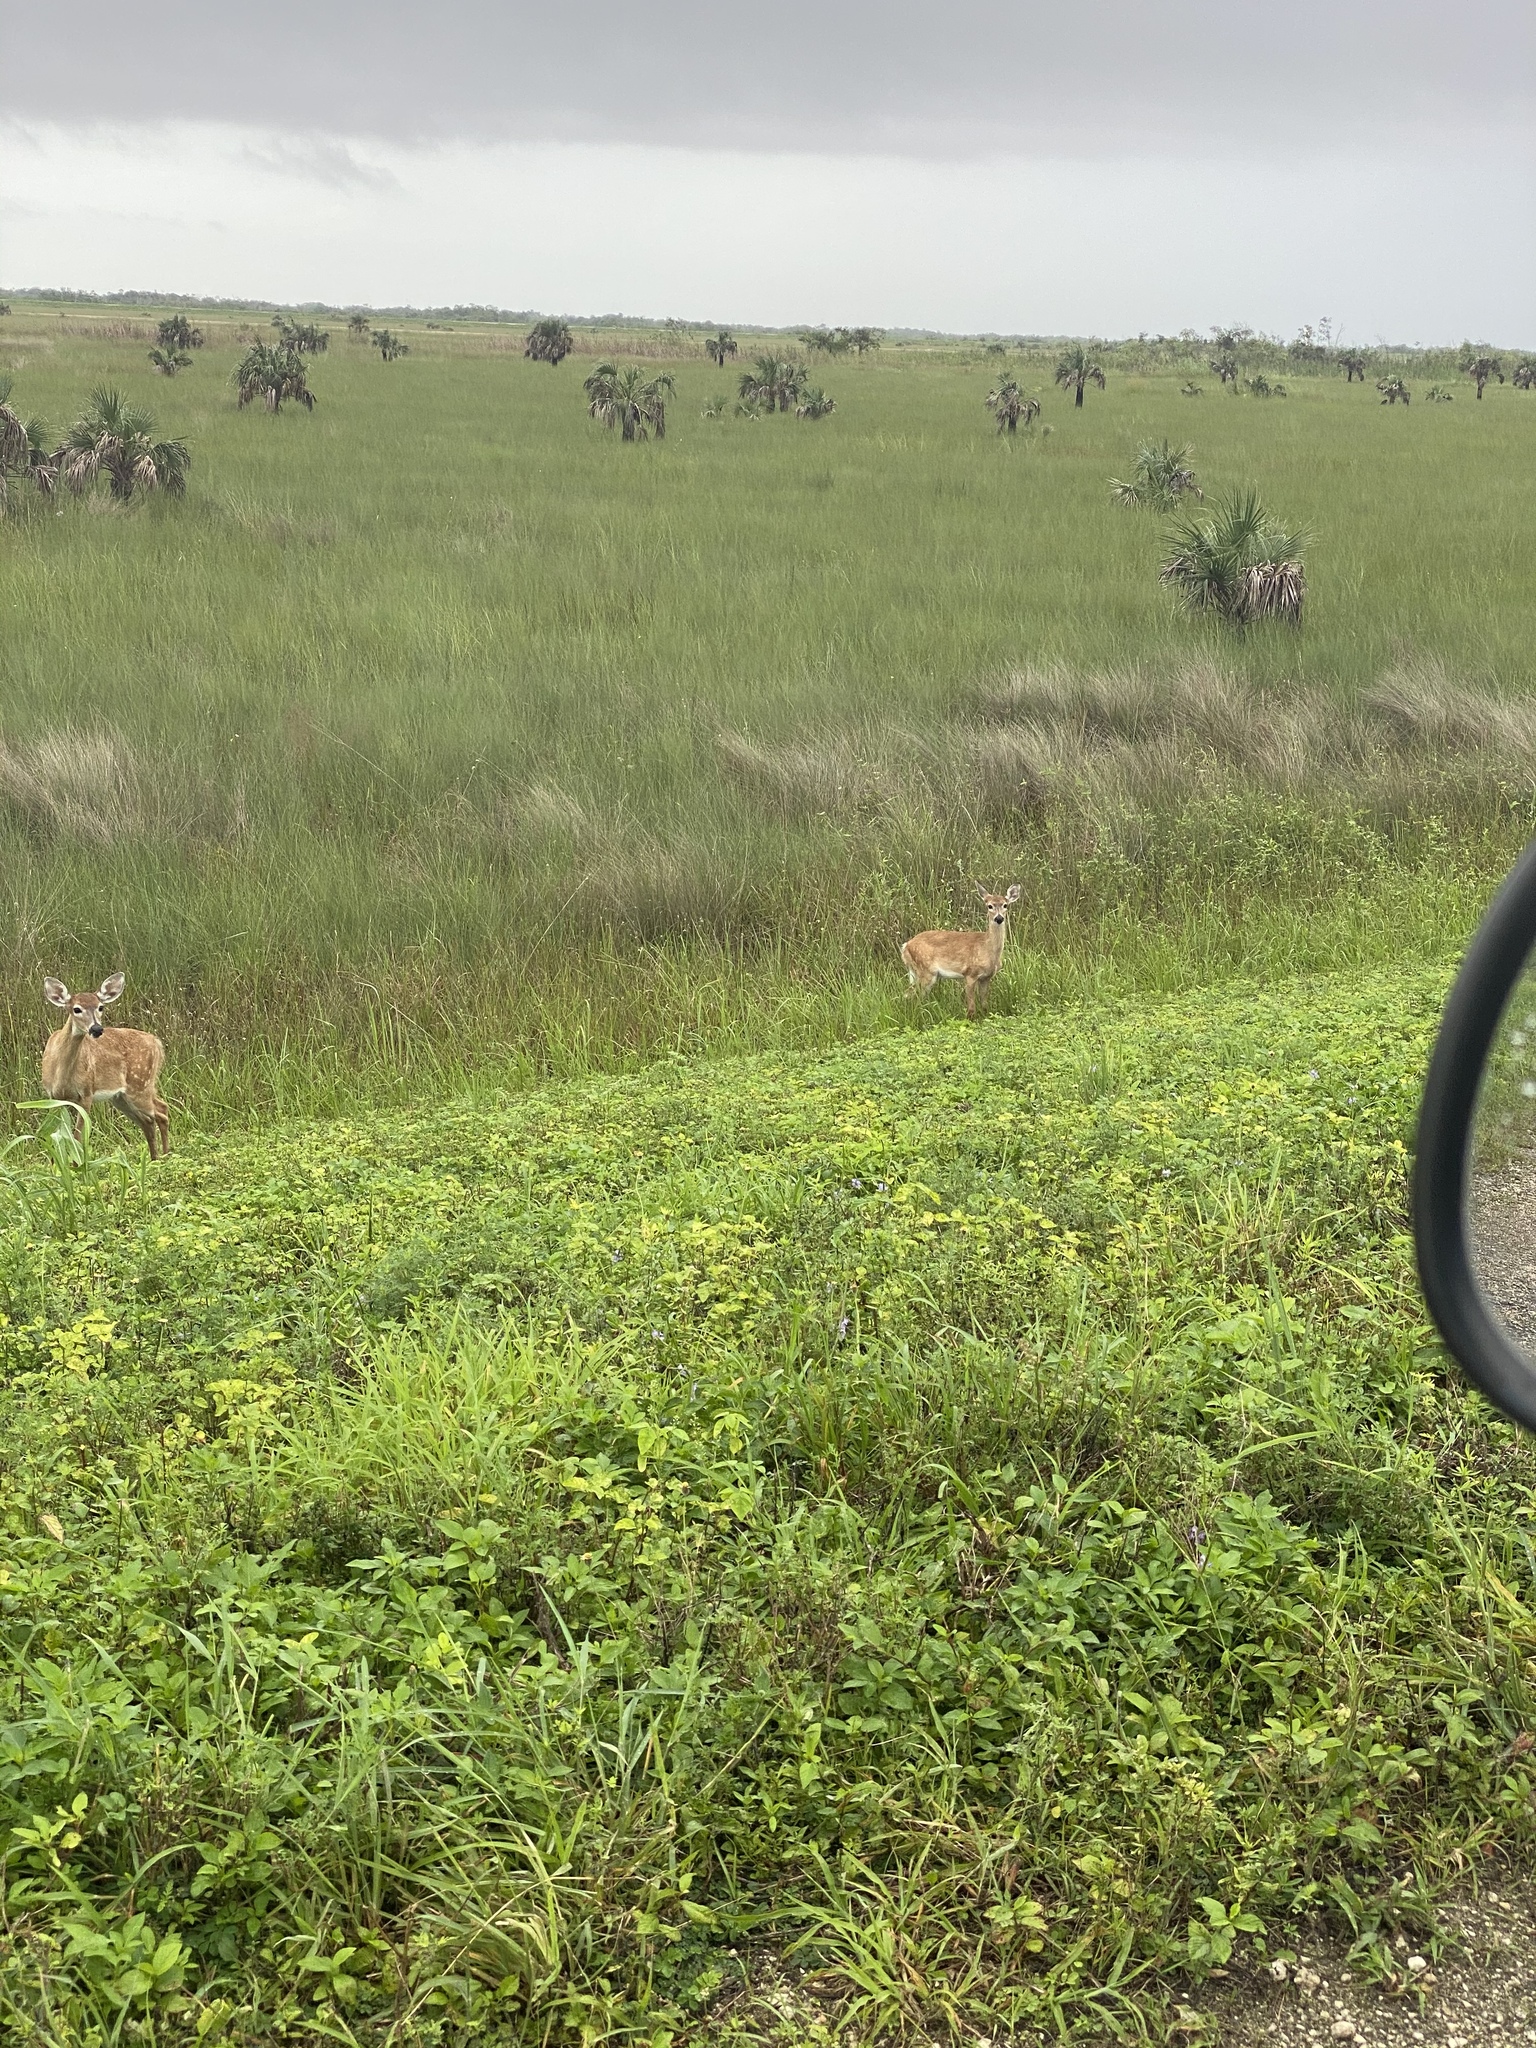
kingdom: Animalia
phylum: Chordata
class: Mammalia
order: Artiodactyla
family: Cervidae
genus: Odocoileus
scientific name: Odocoileus virginianus
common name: White-tailed deer
